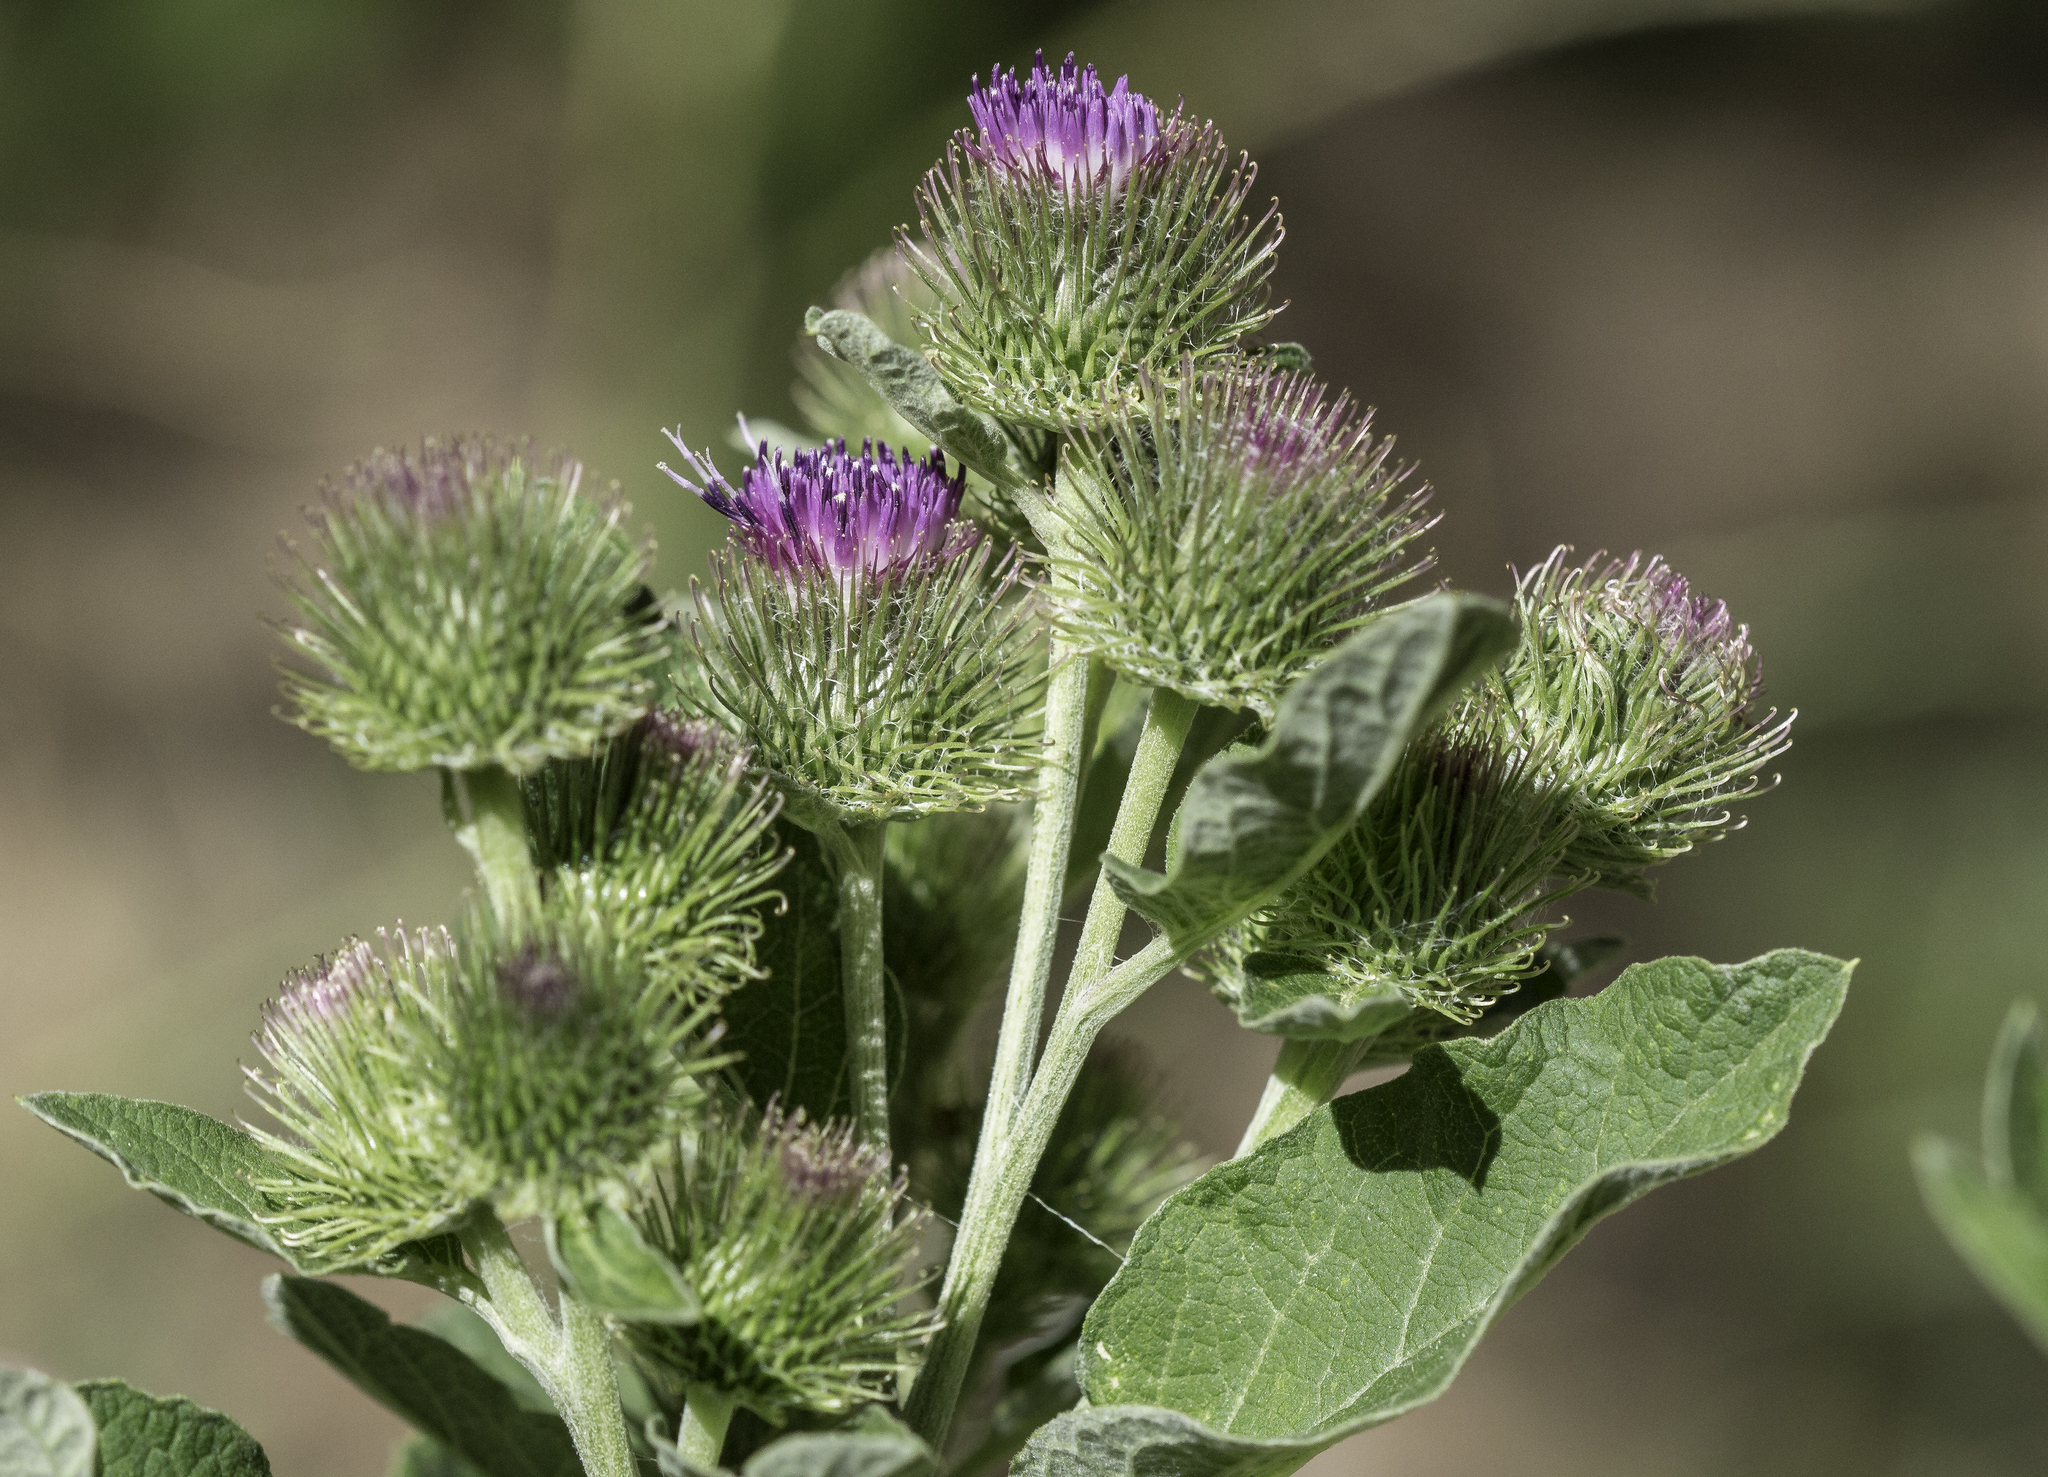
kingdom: Plantae
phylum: Tracheophyta
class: Magnoliopsida
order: Asterales
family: Asteraceae
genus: Arctium
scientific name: Arctium minus
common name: Lesser burdock
